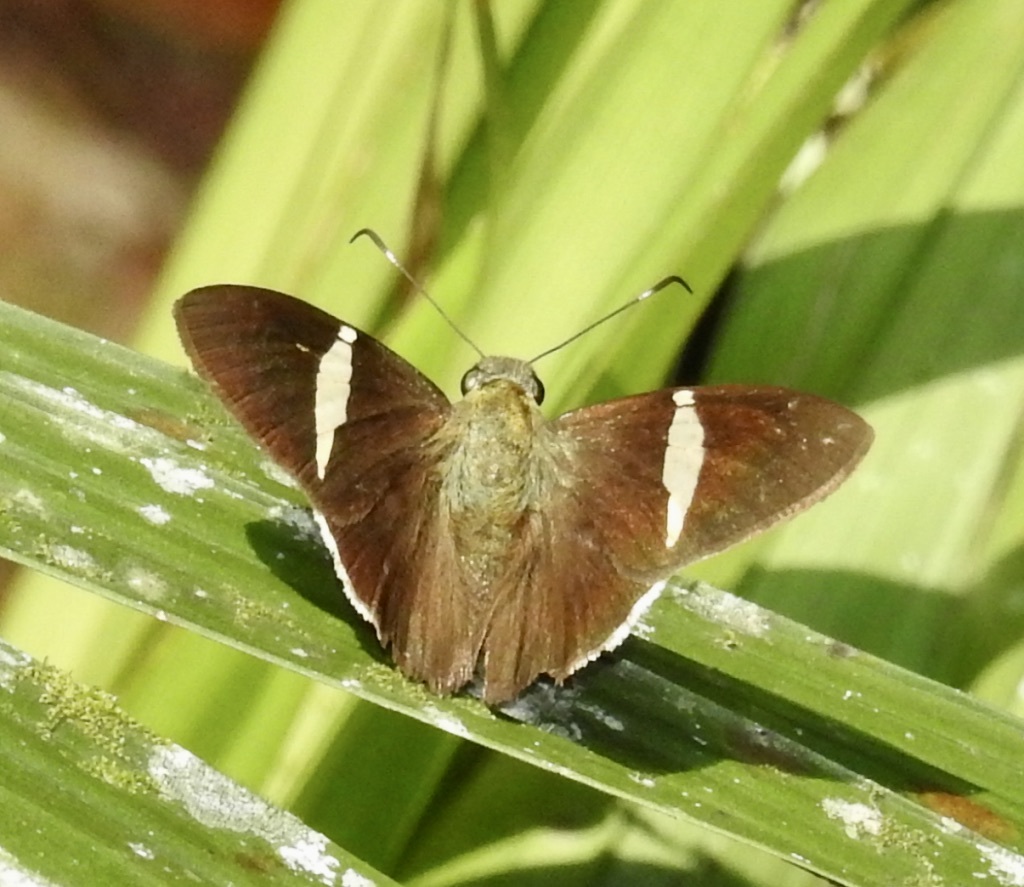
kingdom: Animalia
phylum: Arthropoda
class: Insecta
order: Lepidoptera
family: Hesperiidae
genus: Autochton
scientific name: Autochton longipennis
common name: Spike banded-skipper
